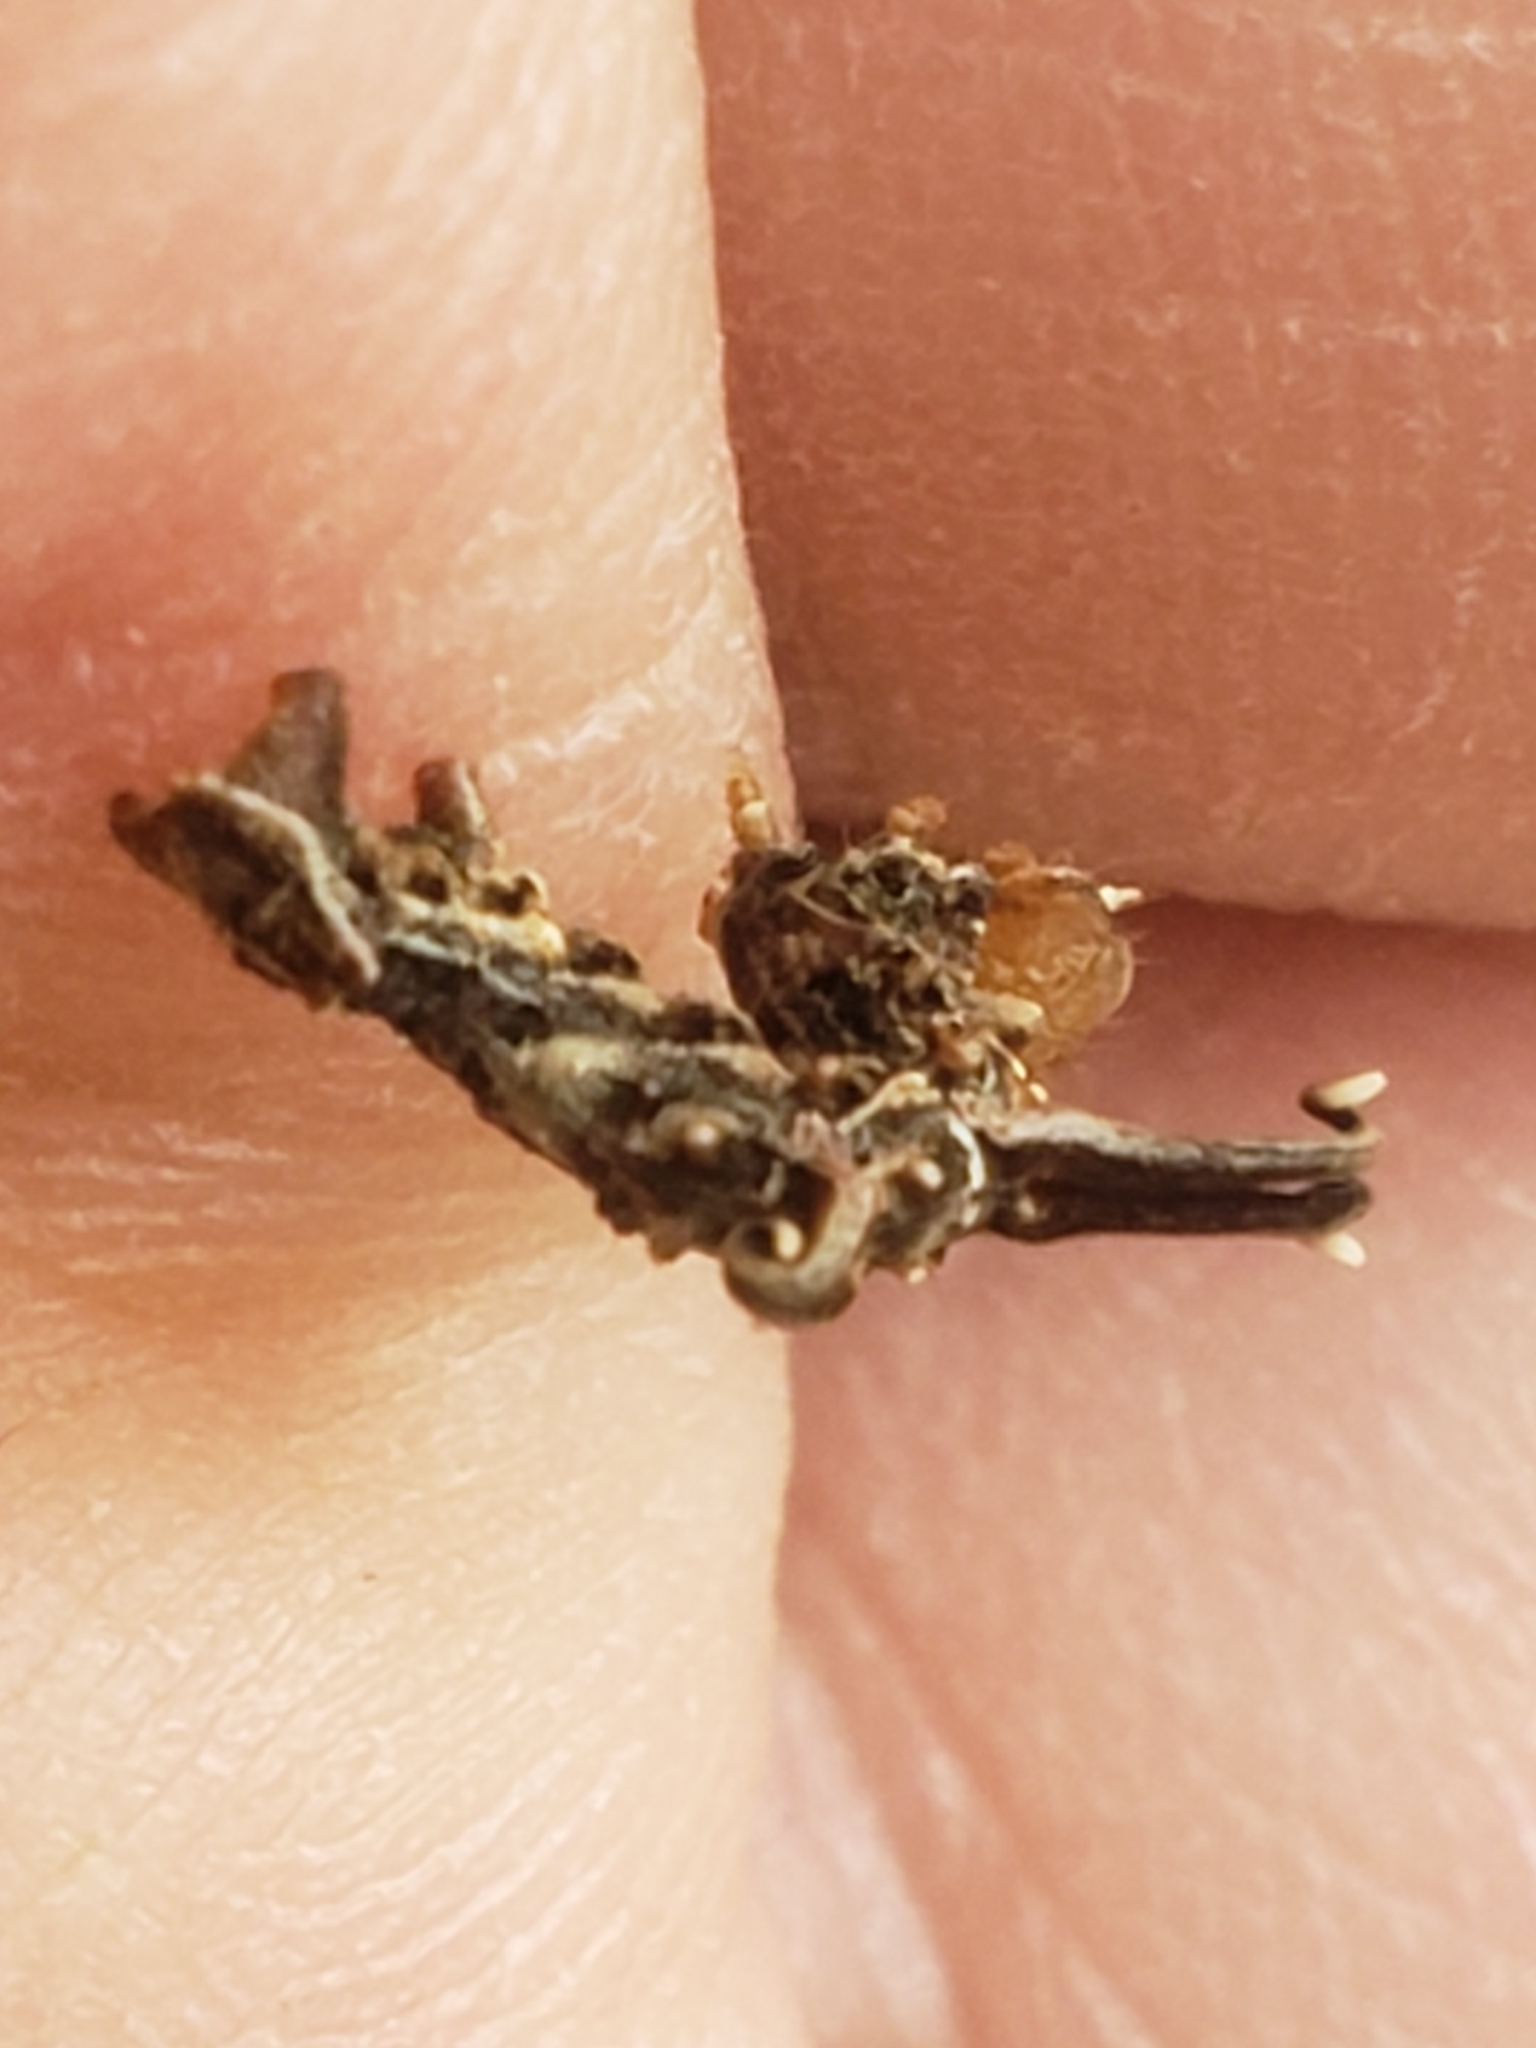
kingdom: Animalia
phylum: Arthropoda
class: Insecta
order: Lepidoptera
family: Geometridae
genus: Nematocampa
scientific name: Nematocampa resistaria
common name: Horned spanworm moth
